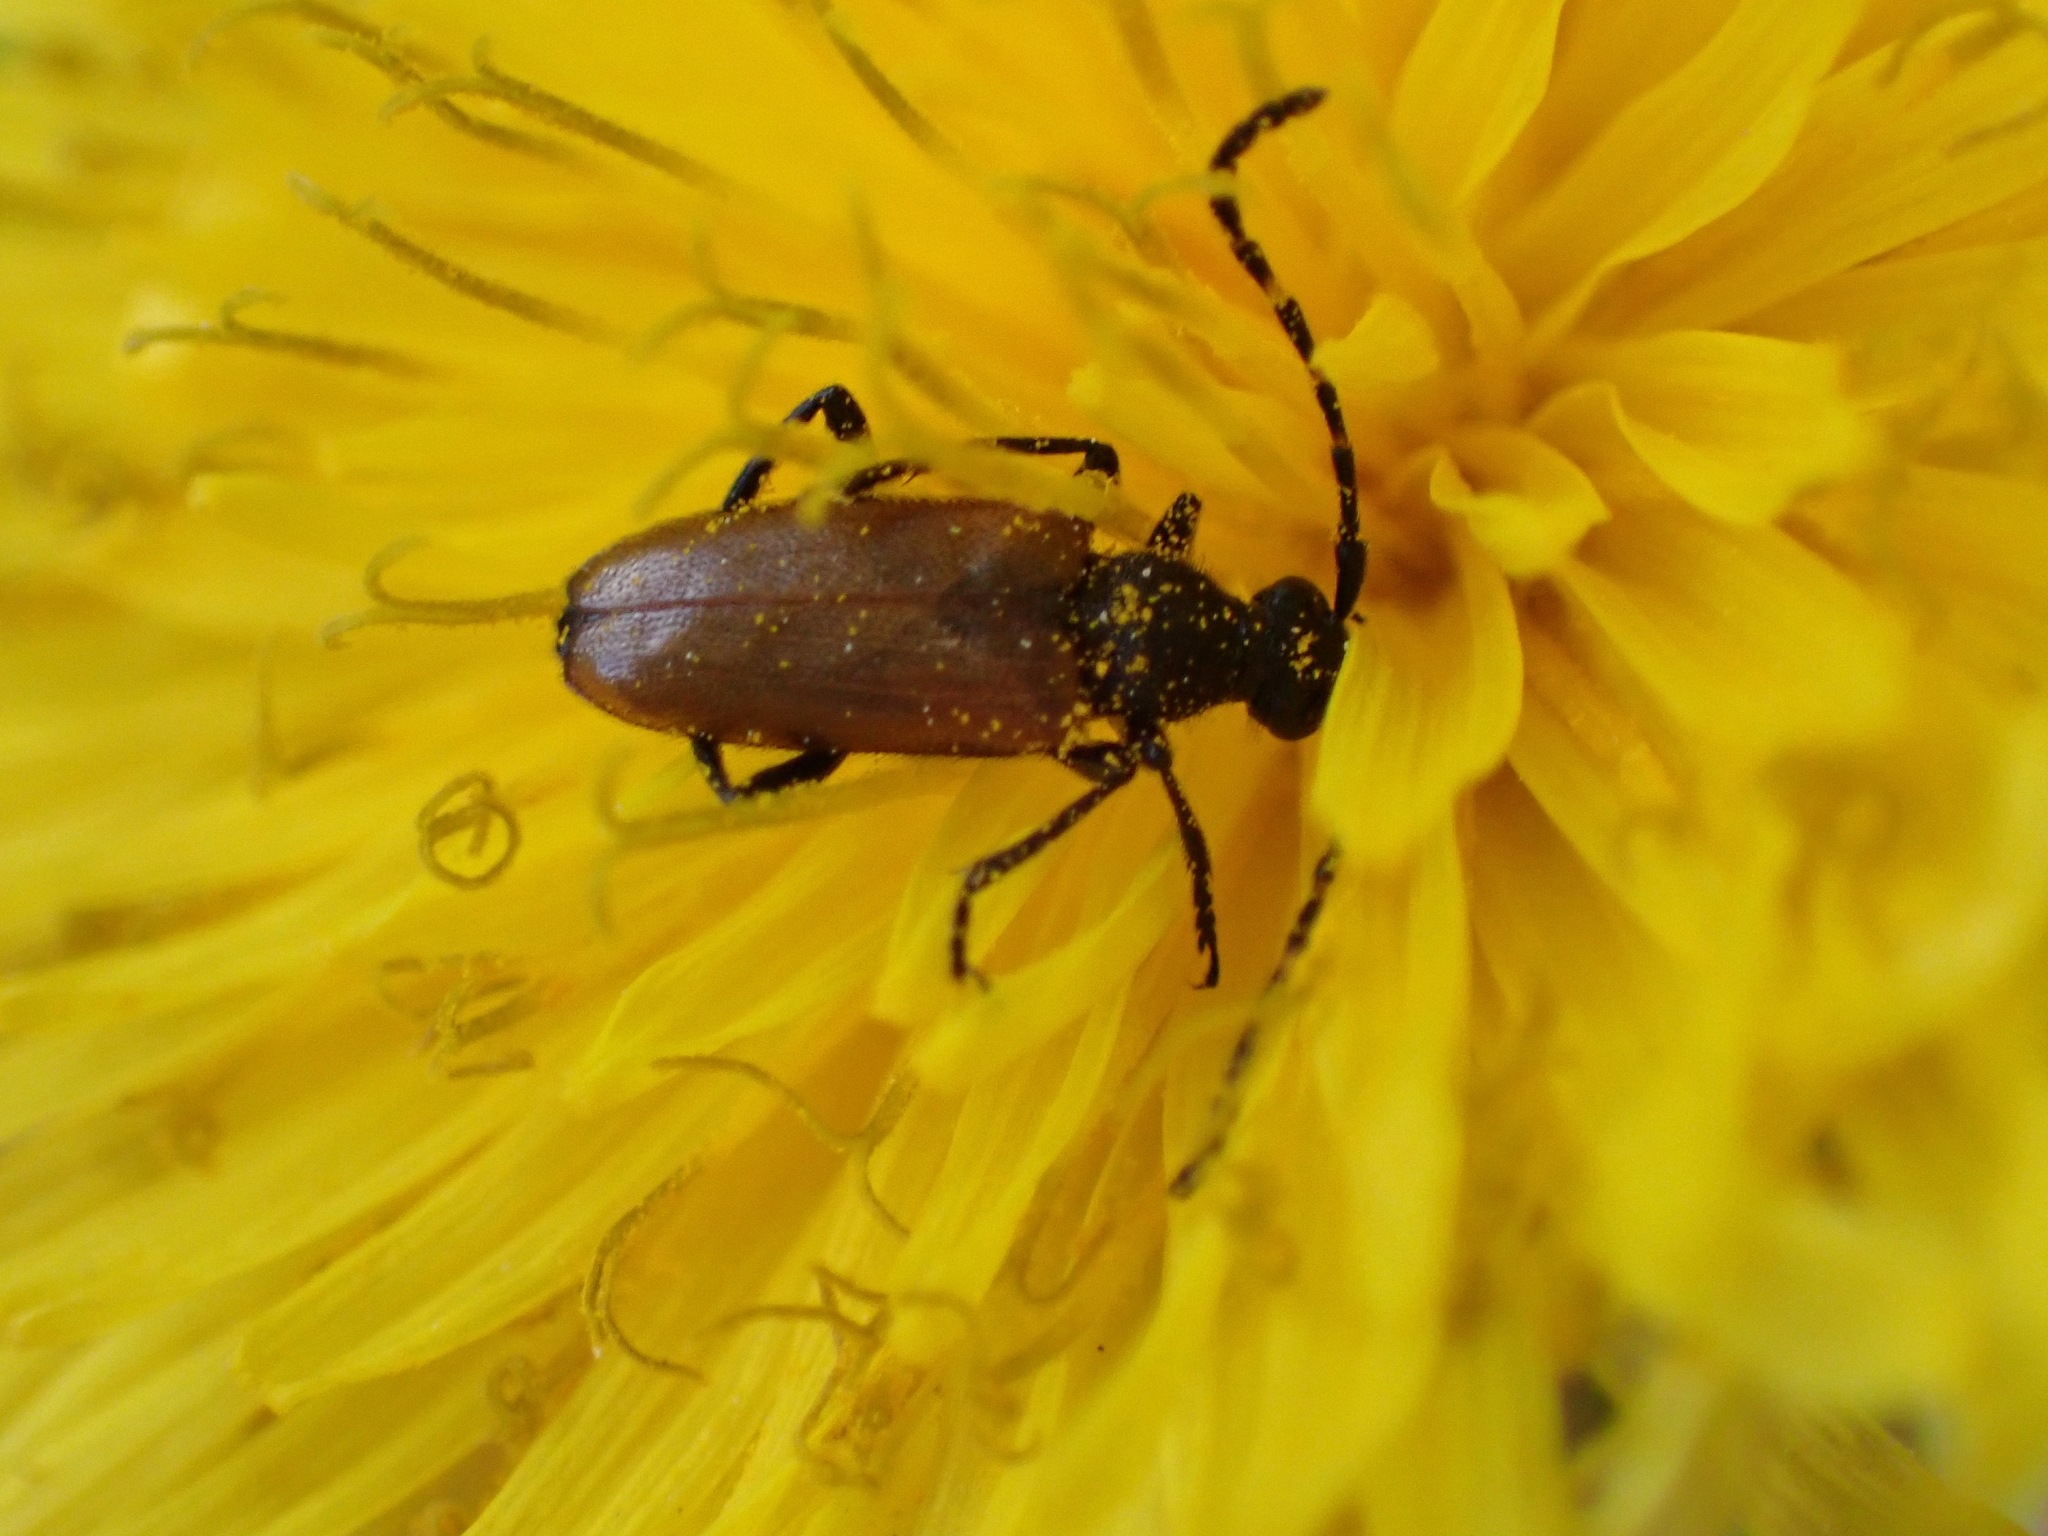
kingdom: Animalia
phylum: Arthropoda
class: Insecta
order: Coleoptera
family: Cerambycidae
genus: Paracorymbia
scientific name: Paracorymbia maculicornis
